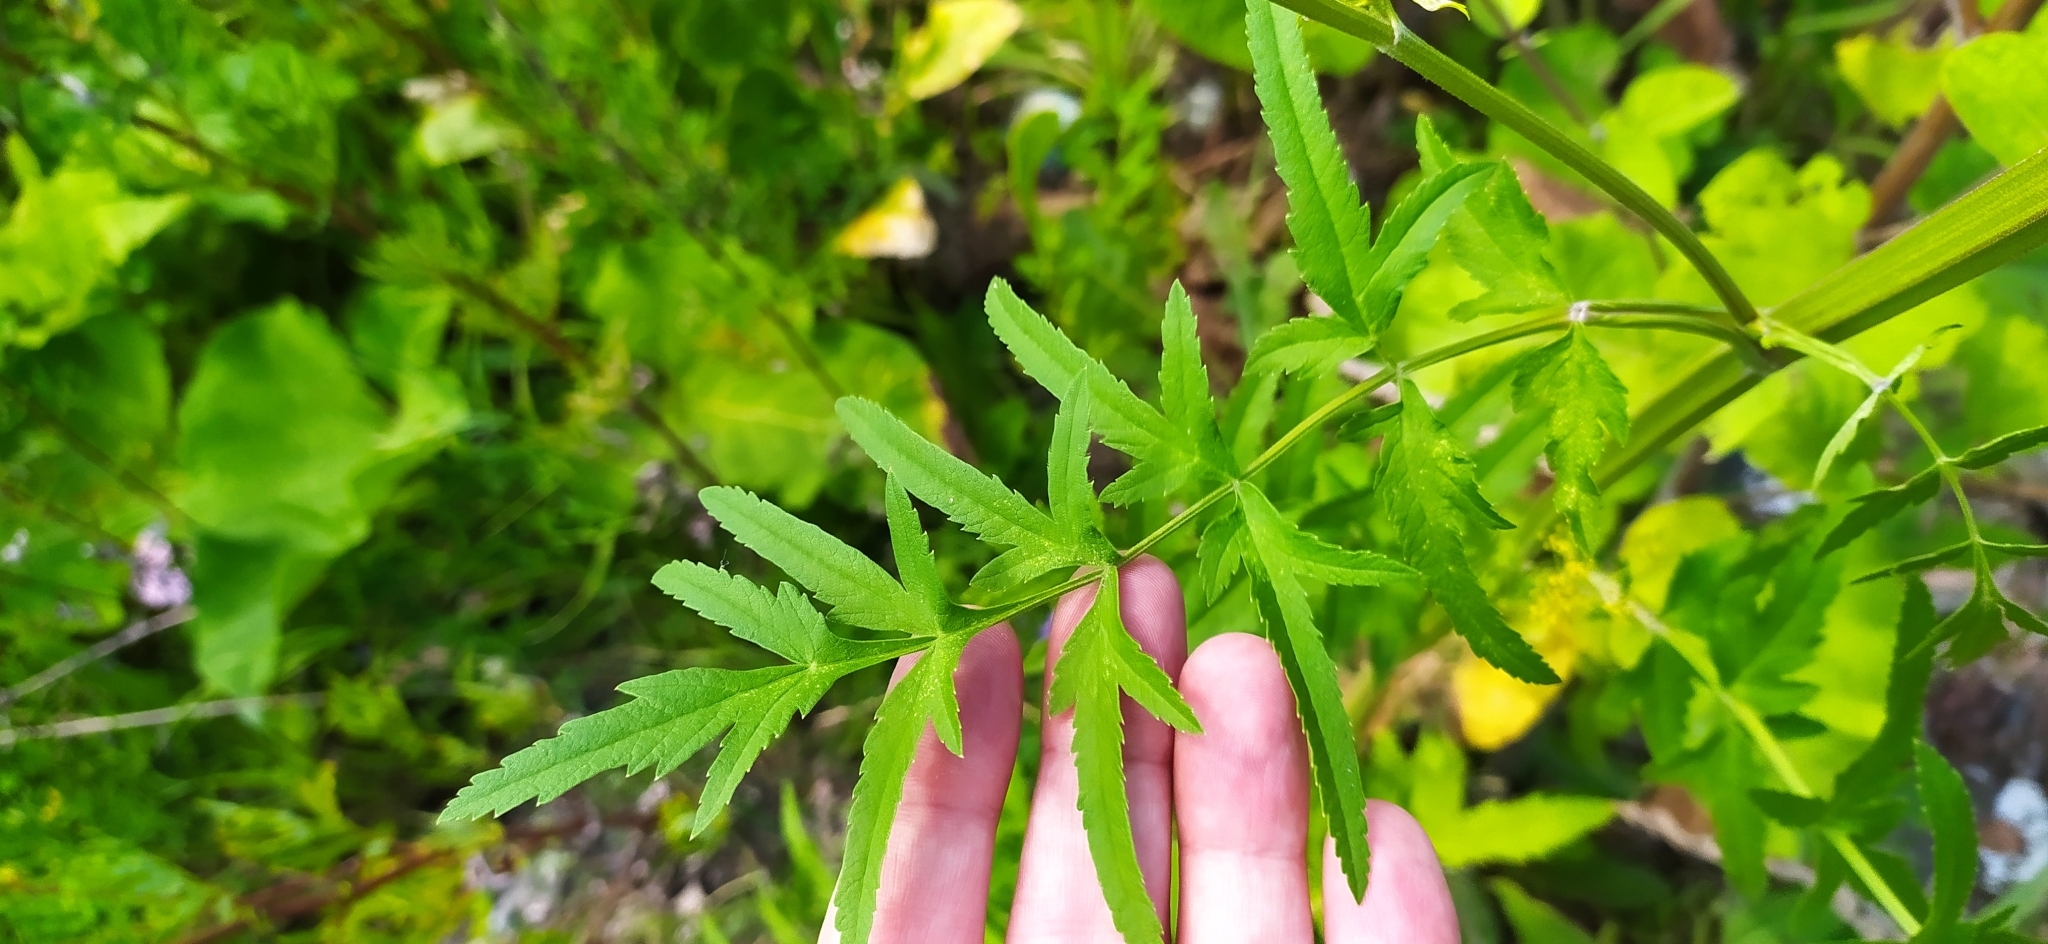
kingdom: Plantae
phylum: Tracheophyta
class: Magnoliopsida
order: Apiales
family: Apiaceae
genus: Pastinaca
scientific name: Pastinaca sativa
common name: Wild parsnip
